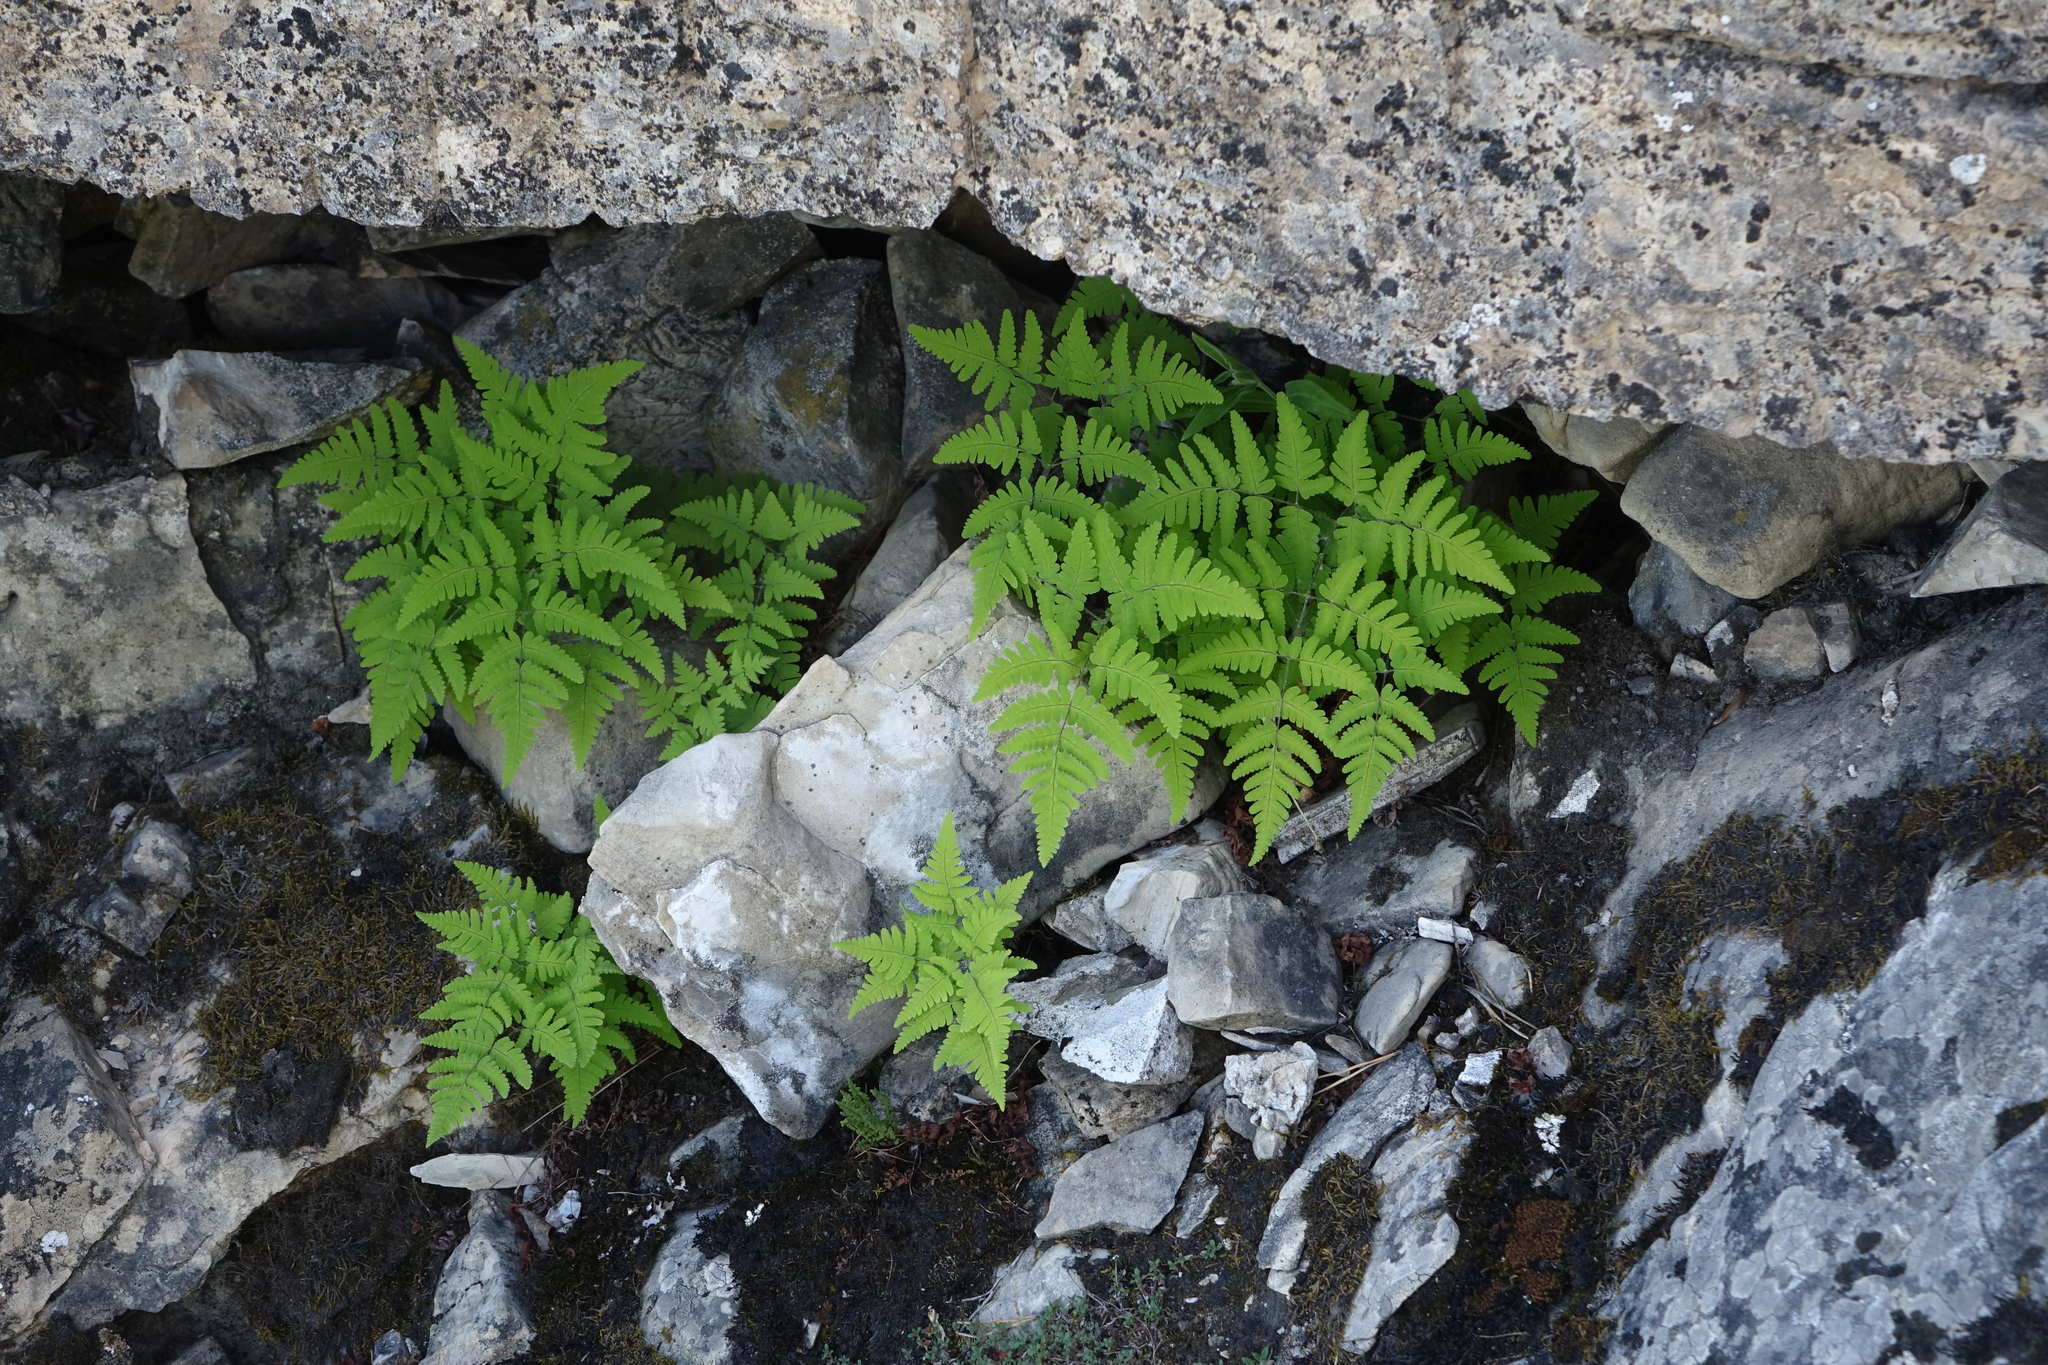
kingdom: Plantae
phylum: Tracheophyta
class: Polypodiopsida
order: Polypodiales
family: Cystopteridaceae
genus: Gymnocarpium
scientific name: Gymnocarpium jessoense
